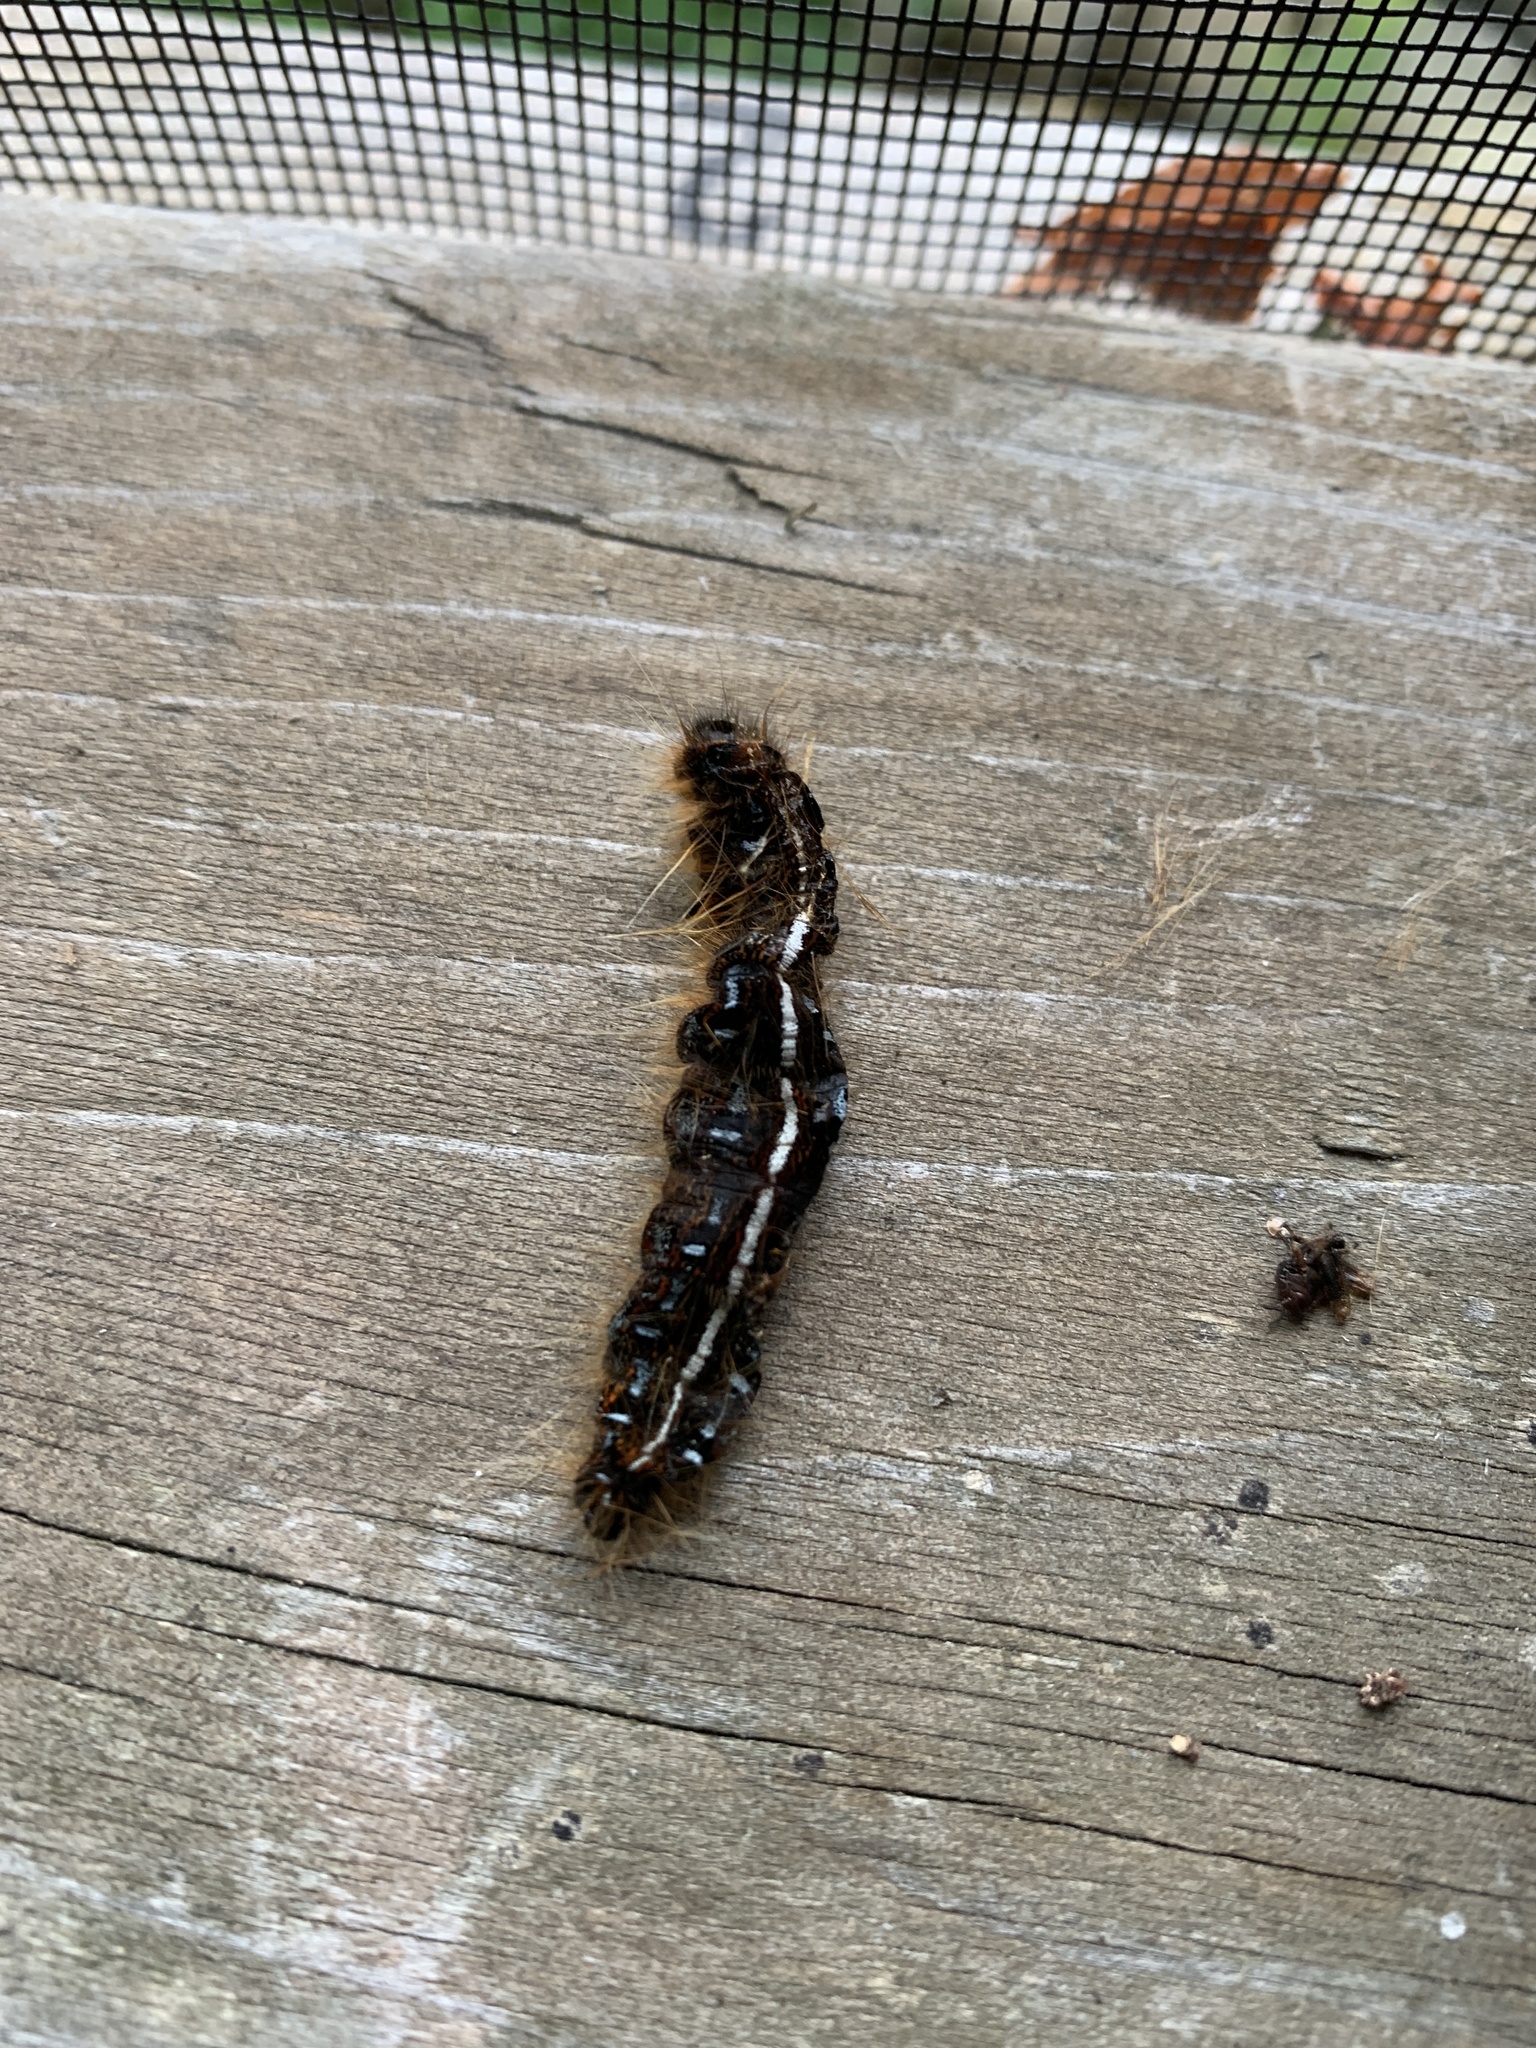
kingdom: Animalia
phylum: Arthropoda
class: Insecta
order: Lepidoptera
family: Lasiocampidae
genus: Malacosoma
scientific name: Malacosoma americana
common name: Eastern tent caterpillar moth
